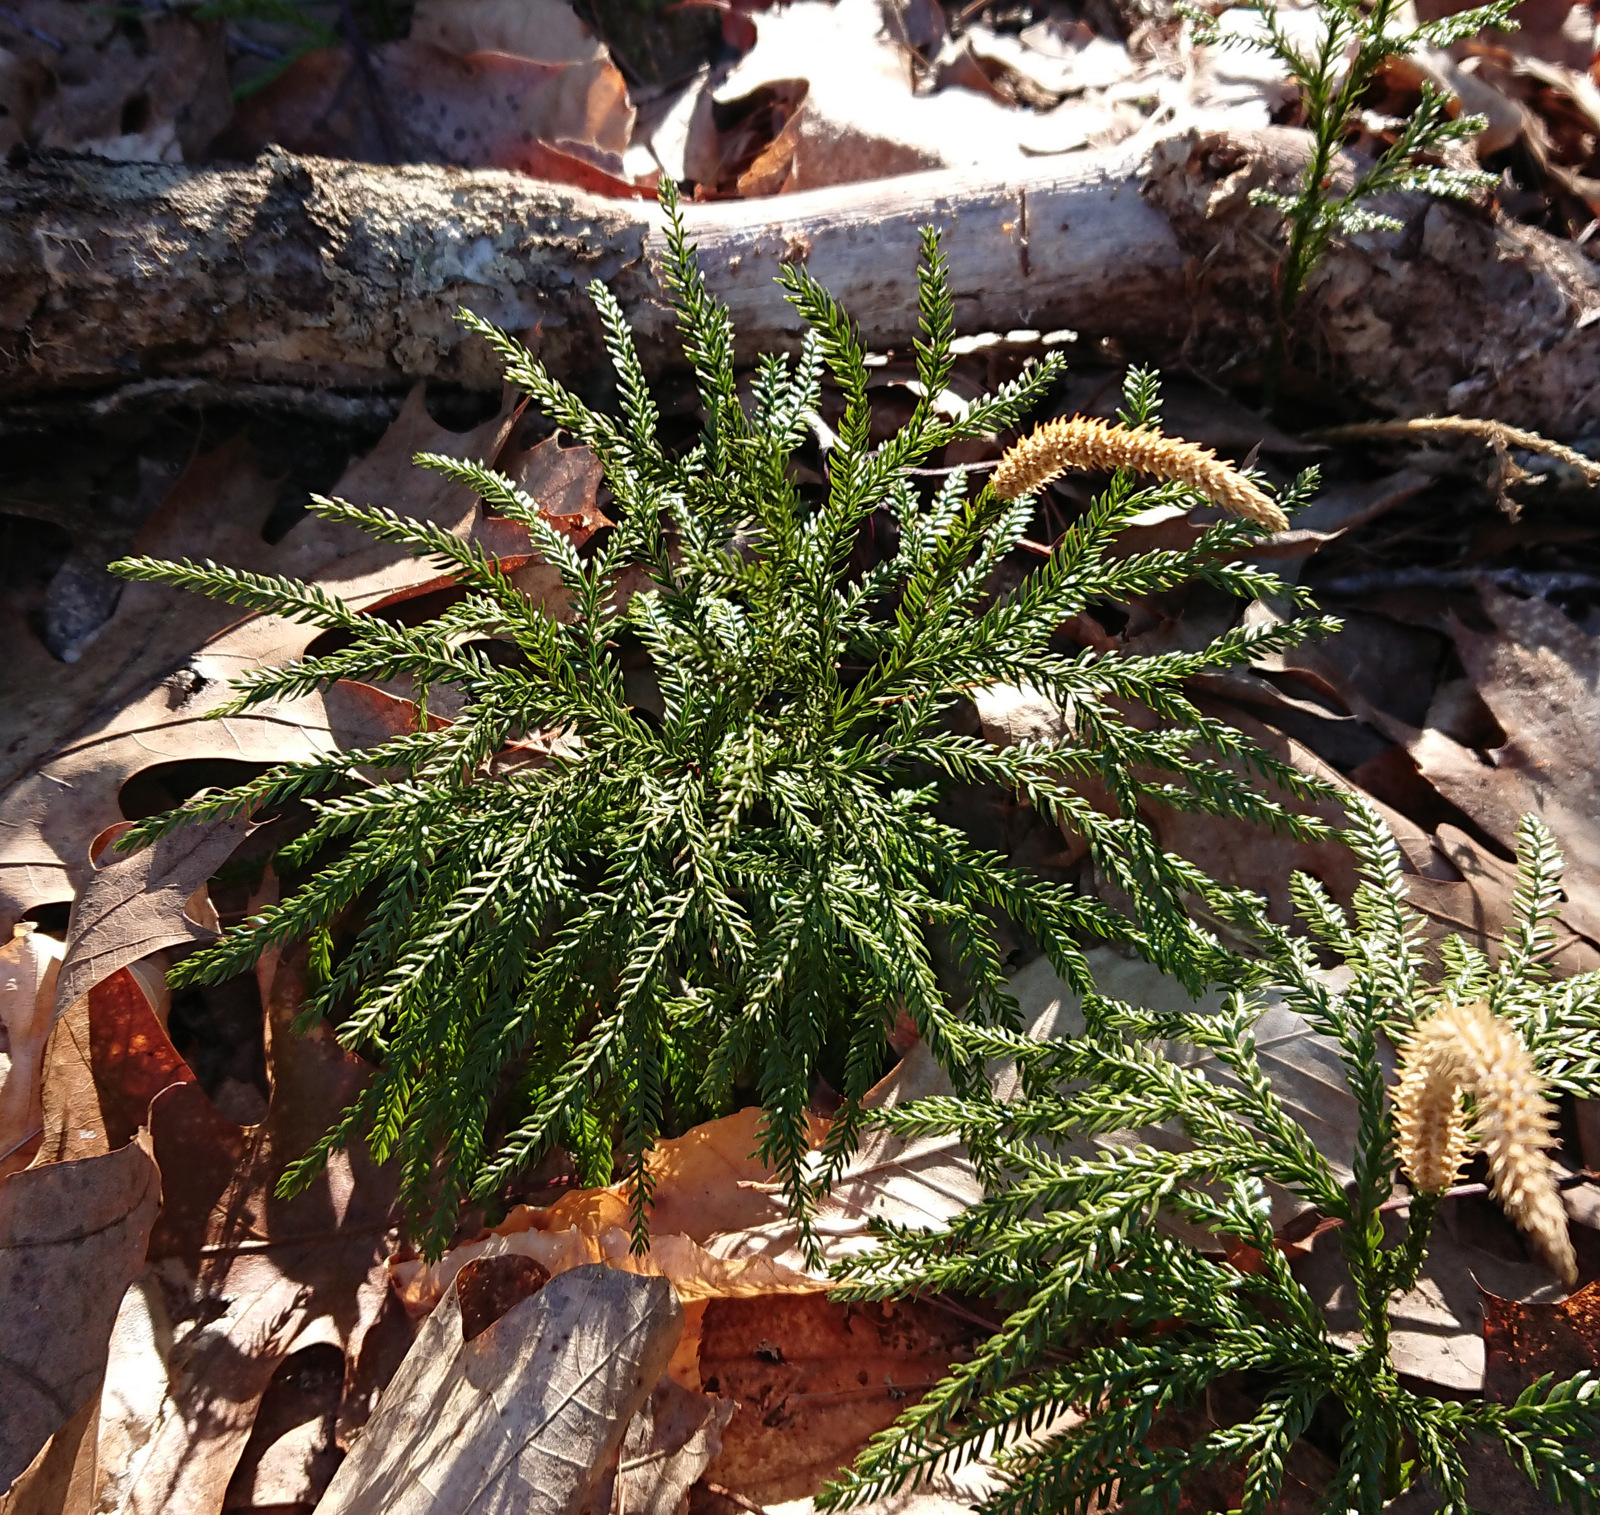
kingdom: Plantae
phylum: Tracheophyta
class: Lycopodiopsida
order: Lycopodiales
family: Lycopodiaceae
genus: Dendrolycopodium
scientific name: Dendrolycopodium obscurum
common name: Common ground-pine
